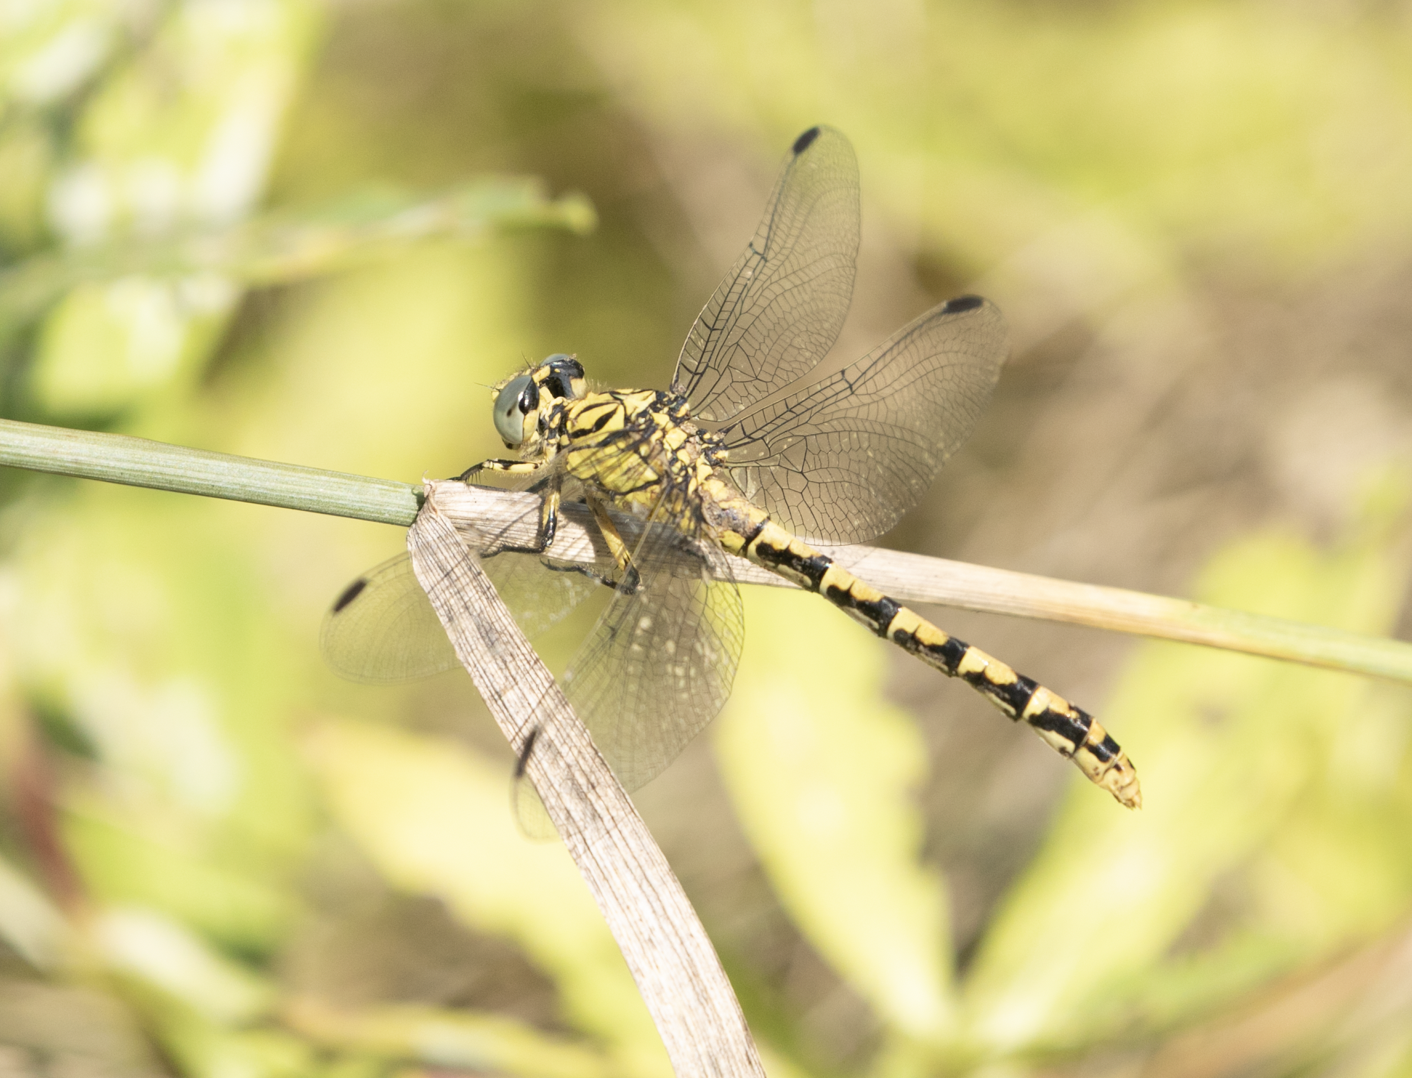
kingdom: Animalia
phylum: Arthropoda
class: Insecta
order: Odonata
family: Gomphidae
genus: Onychogomphus
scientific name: Onychogomphus forcipatus
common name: Small pincertail
